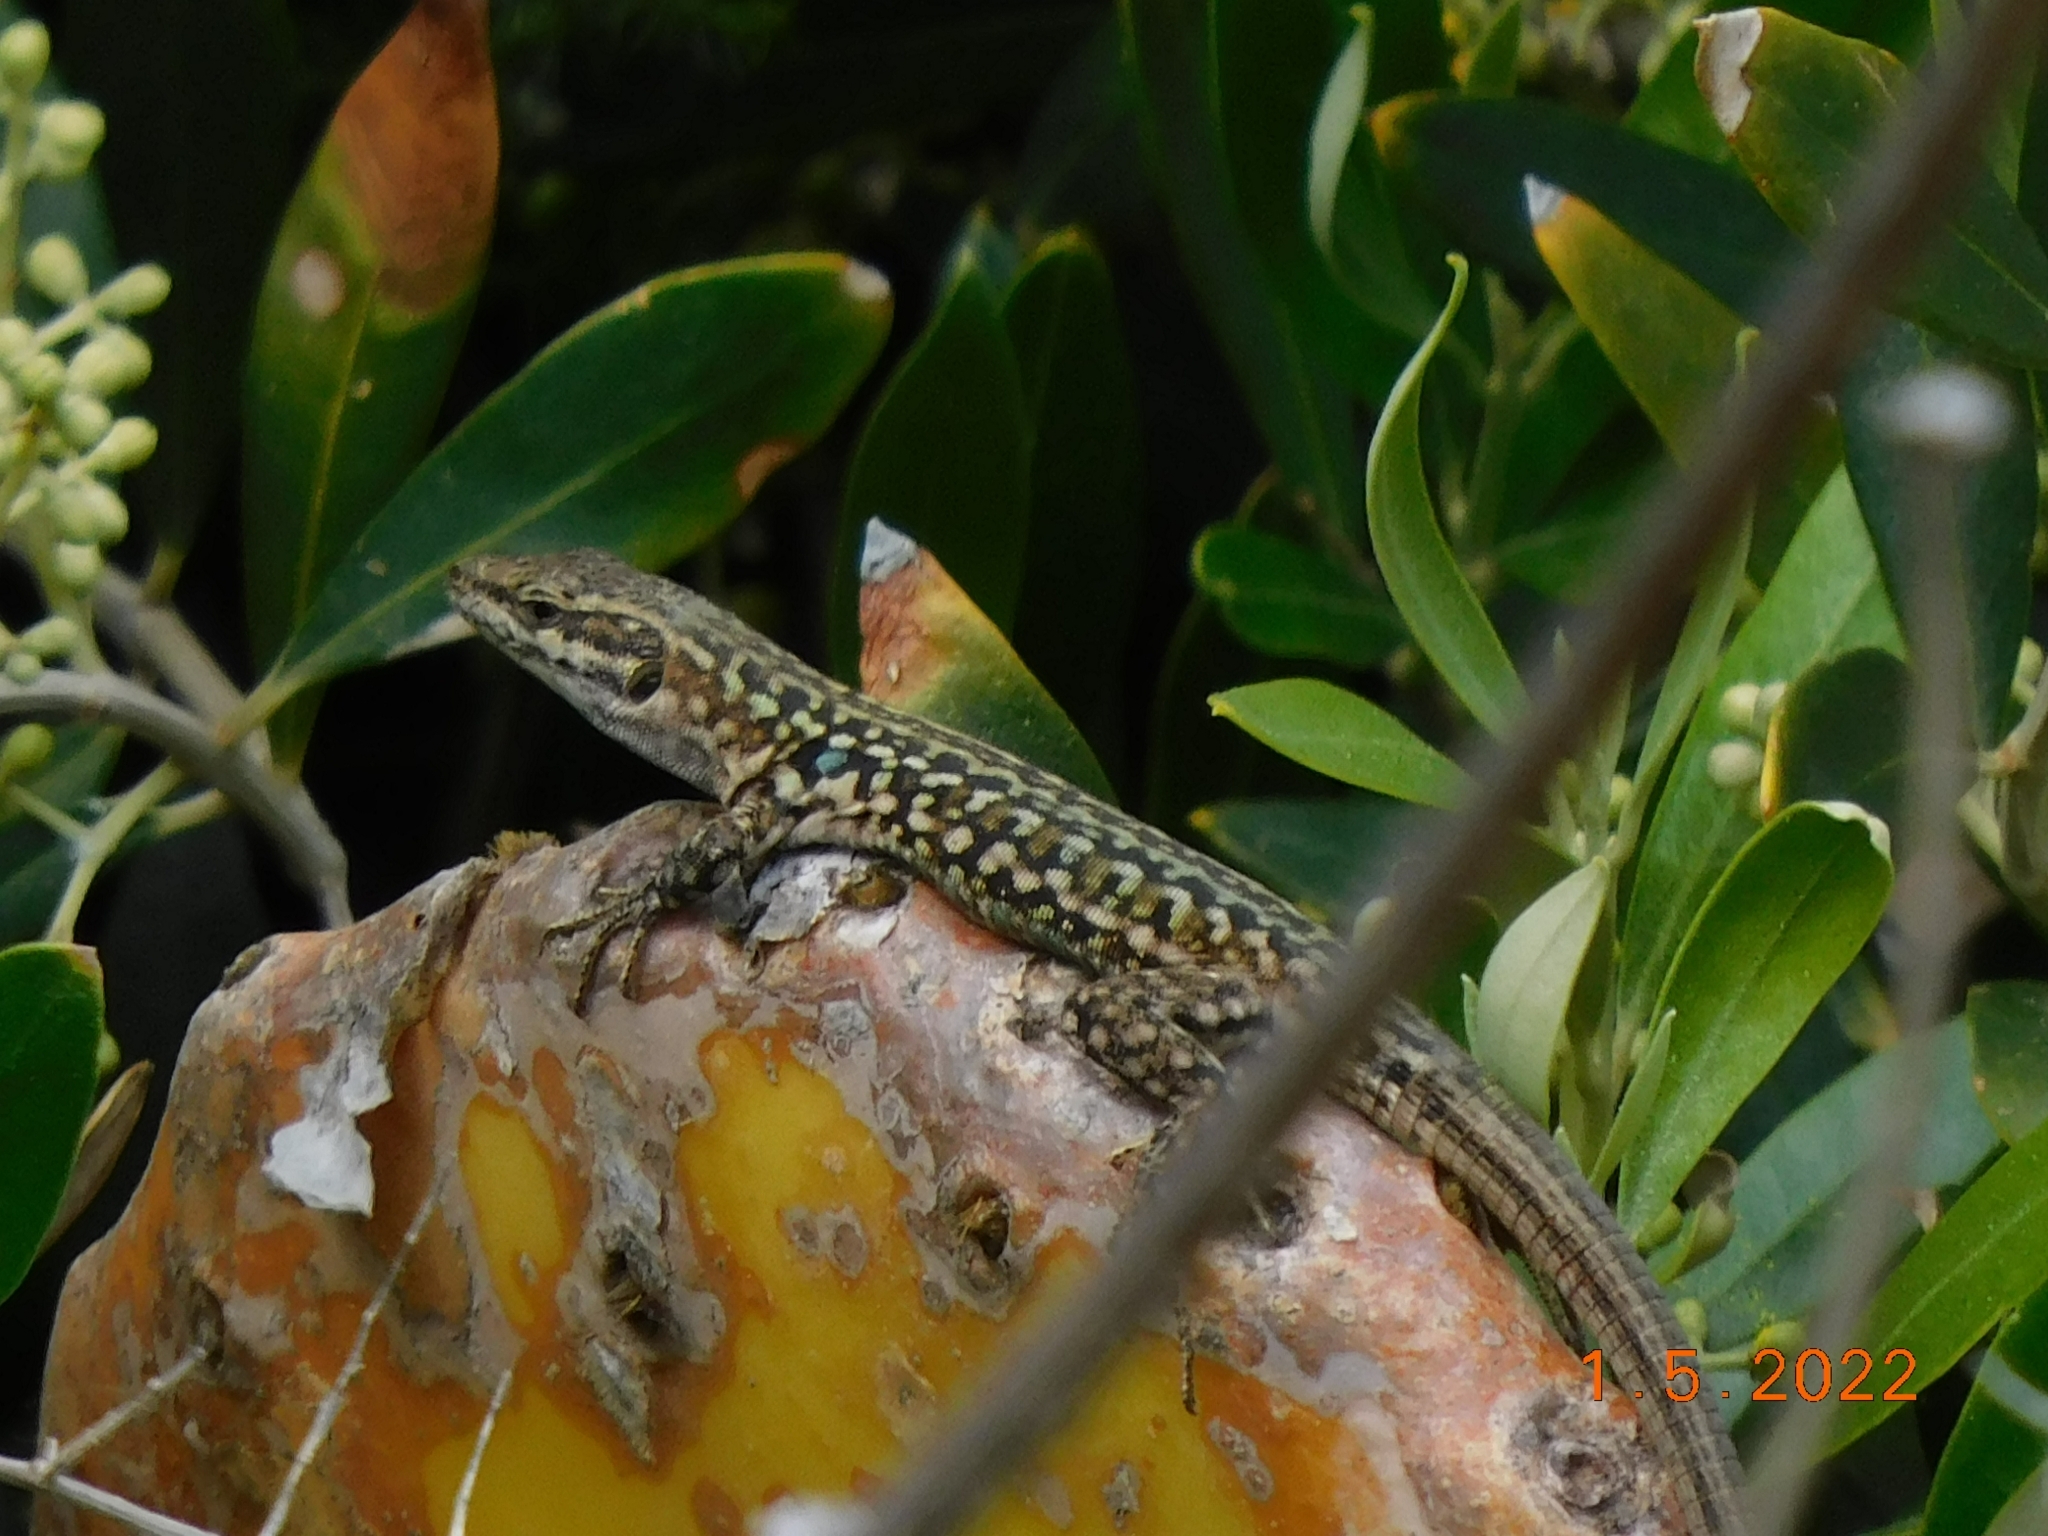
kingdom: Animalia
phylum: Chordata
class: Squamata
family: Lacertidae
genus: Podarcis
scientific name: Podarcis siculus
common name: Italian wall lizard
